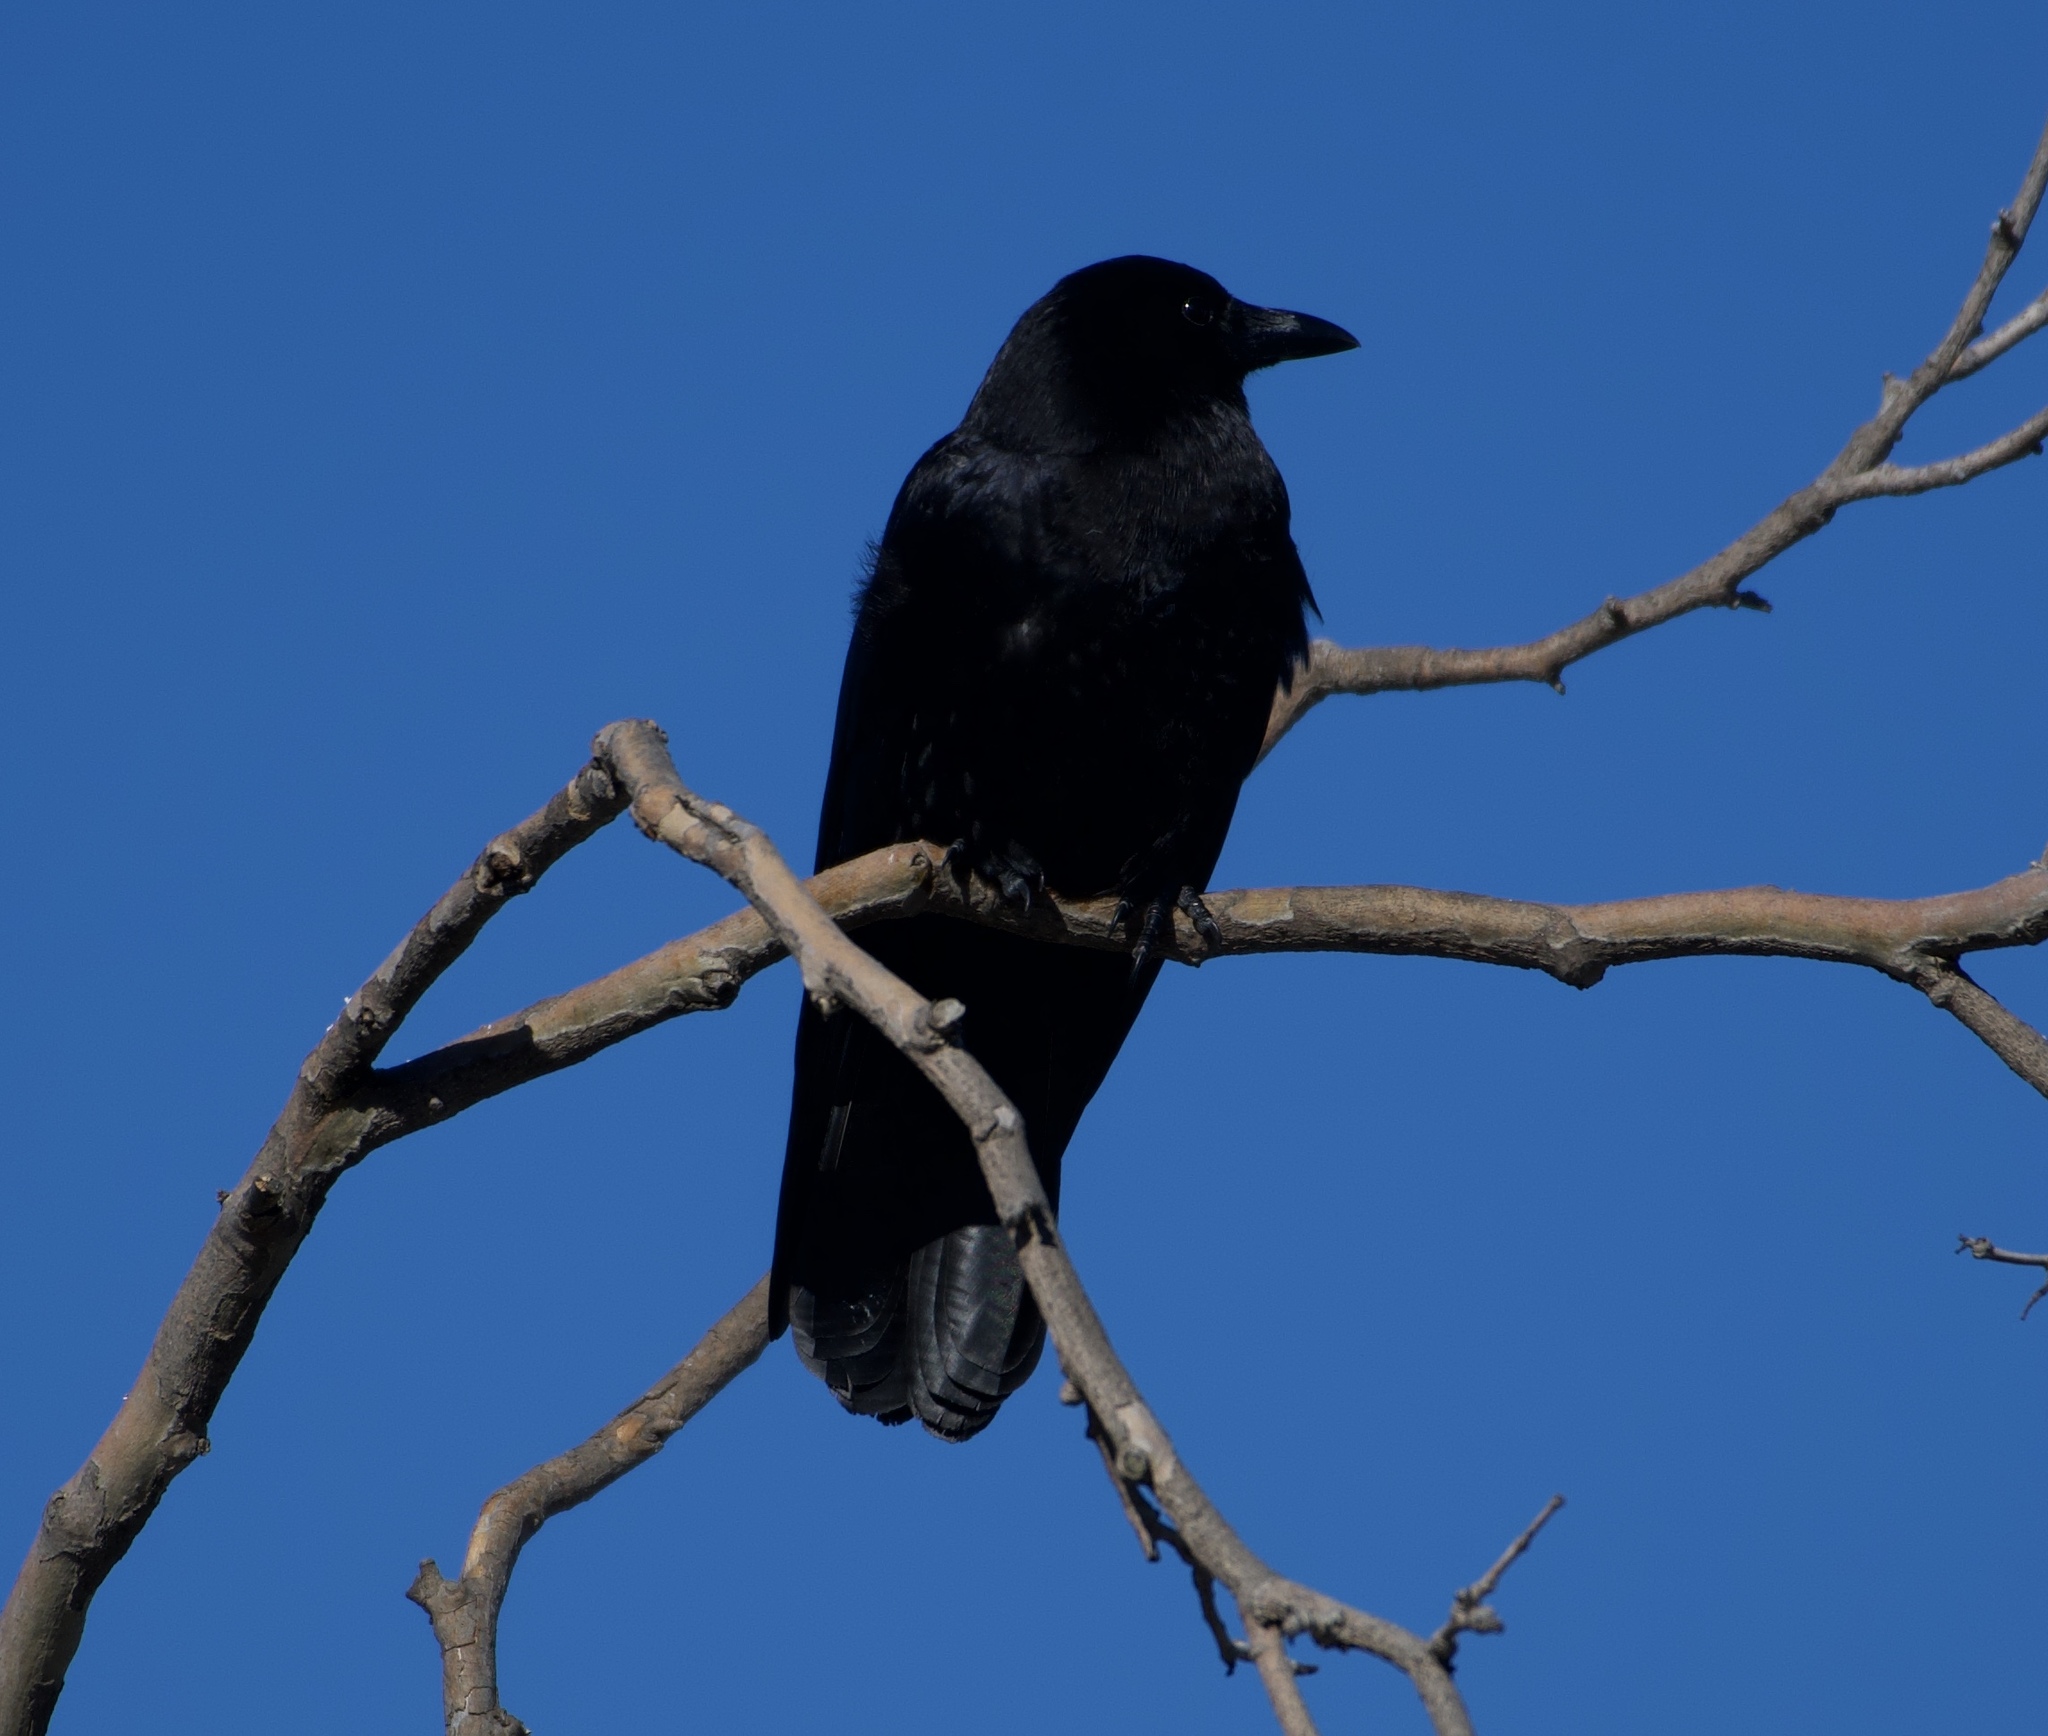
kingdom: Animalia
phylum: Chordata
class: Aves
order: Passeriformes
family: Corvidae
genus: Corvus
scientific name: Corvus brachyrhynchos
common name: American crow
